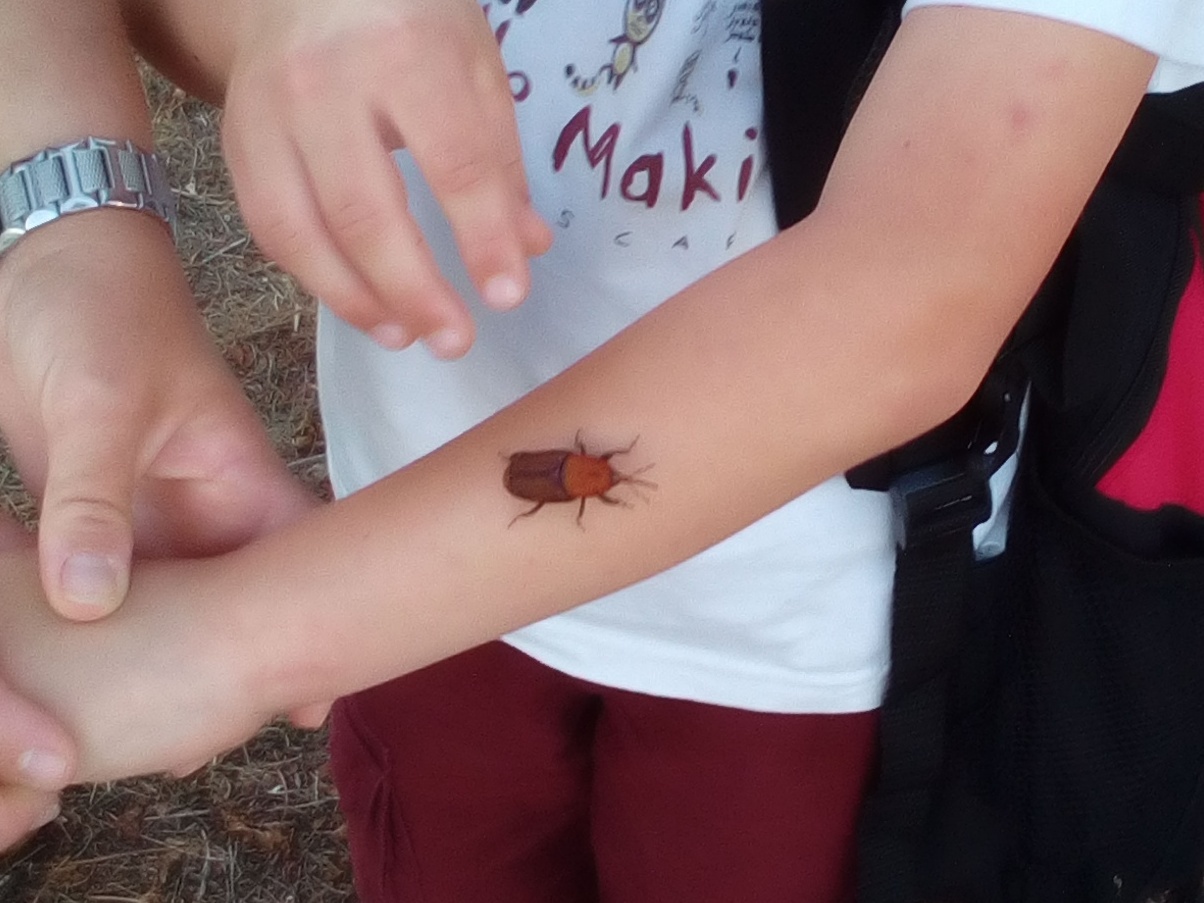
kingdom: Animalia
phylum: Arthropoda
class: Insecta
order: Coleoptera
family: Dryophthoridae
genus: Rhynchophorus
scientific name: Rhynchophorus ferrugineus
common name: Red palm weevil
